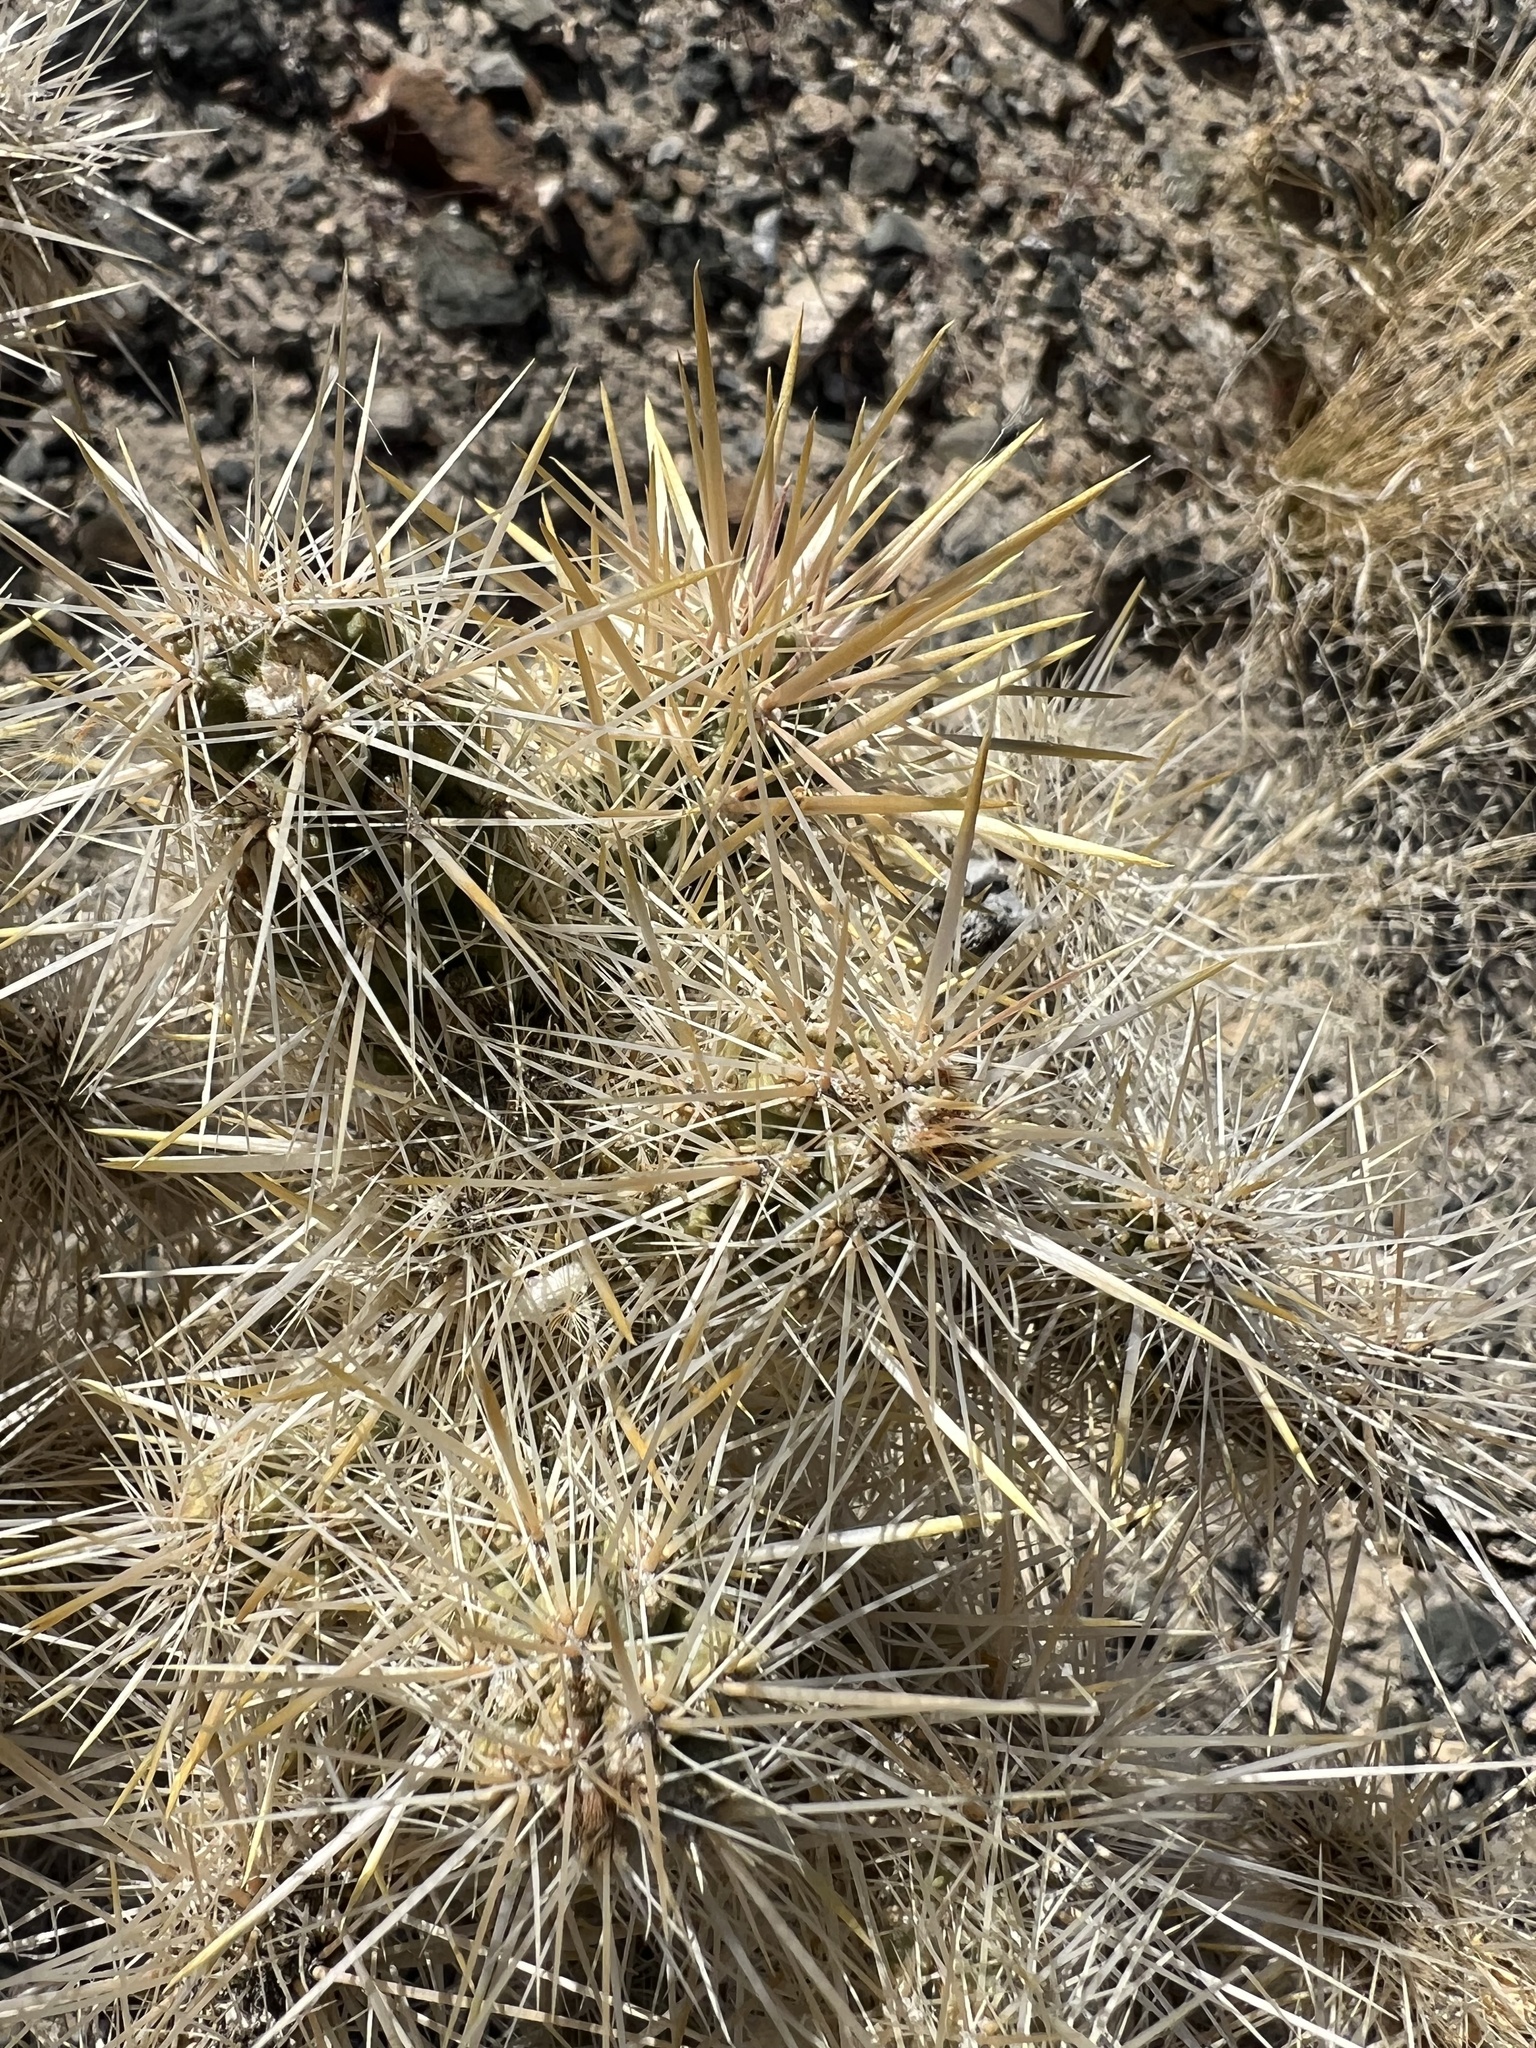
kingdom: Plantae
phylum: Tracheophyta
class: Magnoliopsida
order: Caryophyllales
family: Cactaceae
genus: Cylindropuntia
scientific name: Cylindropuntia echinocarpa
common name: Ground cholla
